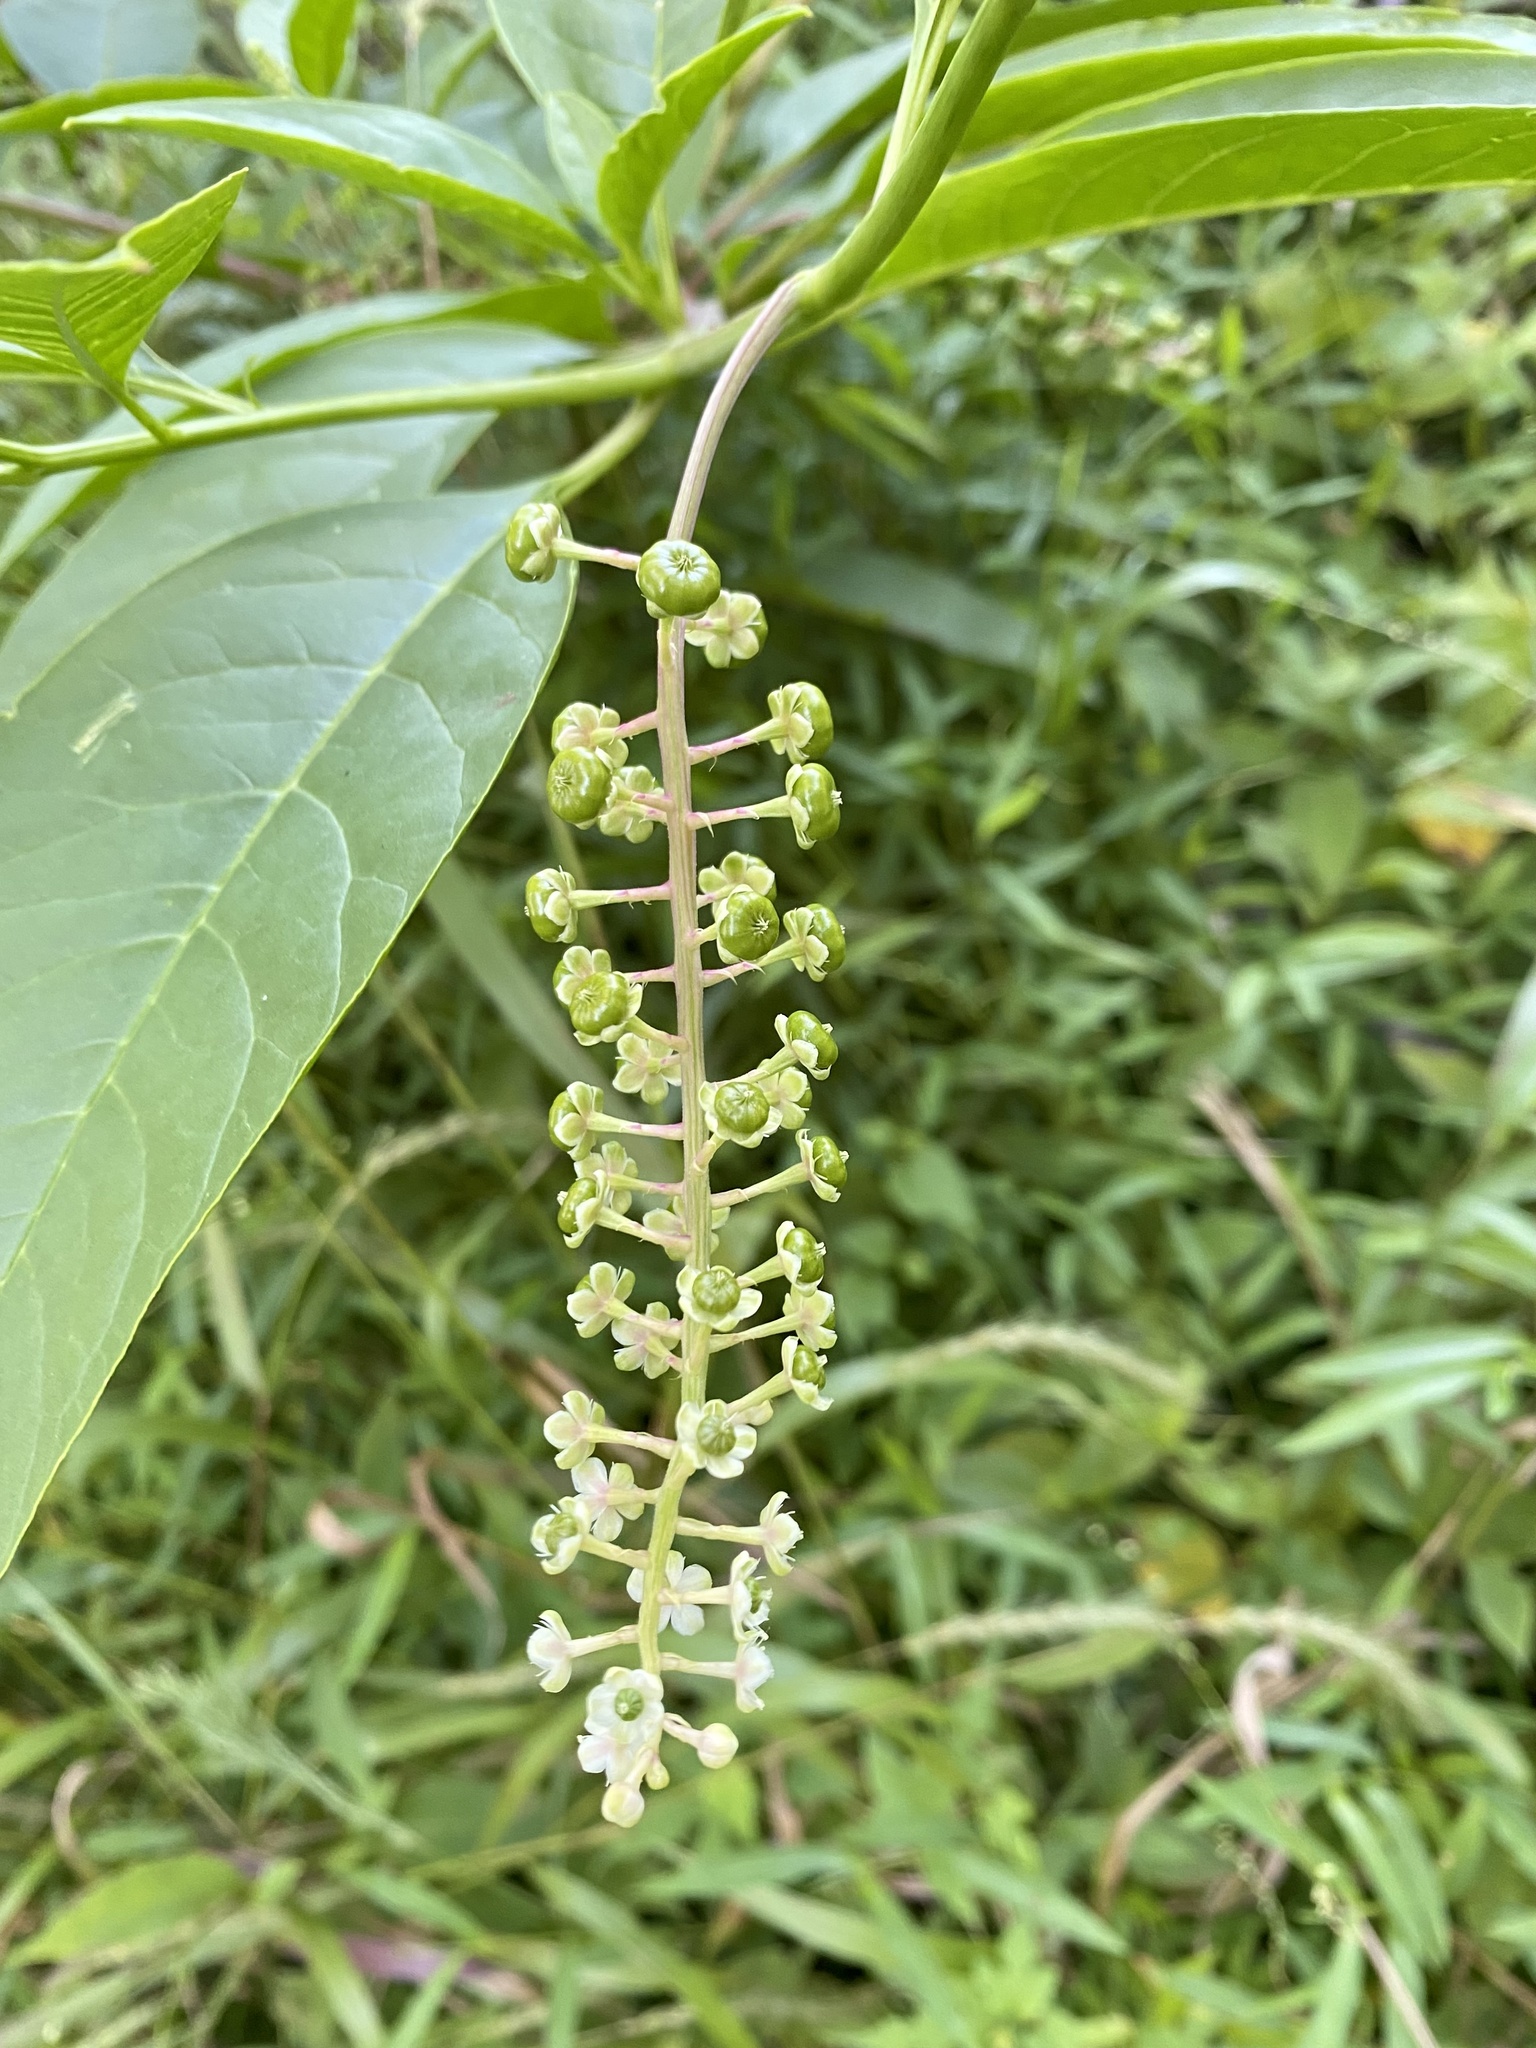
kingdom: Plantae
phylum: Tracheophyta
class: Magnoliopsida
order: Caryophyllales
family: Phytolaccaceae
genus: Phytolacca
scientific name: Phytolacca americana
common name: American pokeweed
